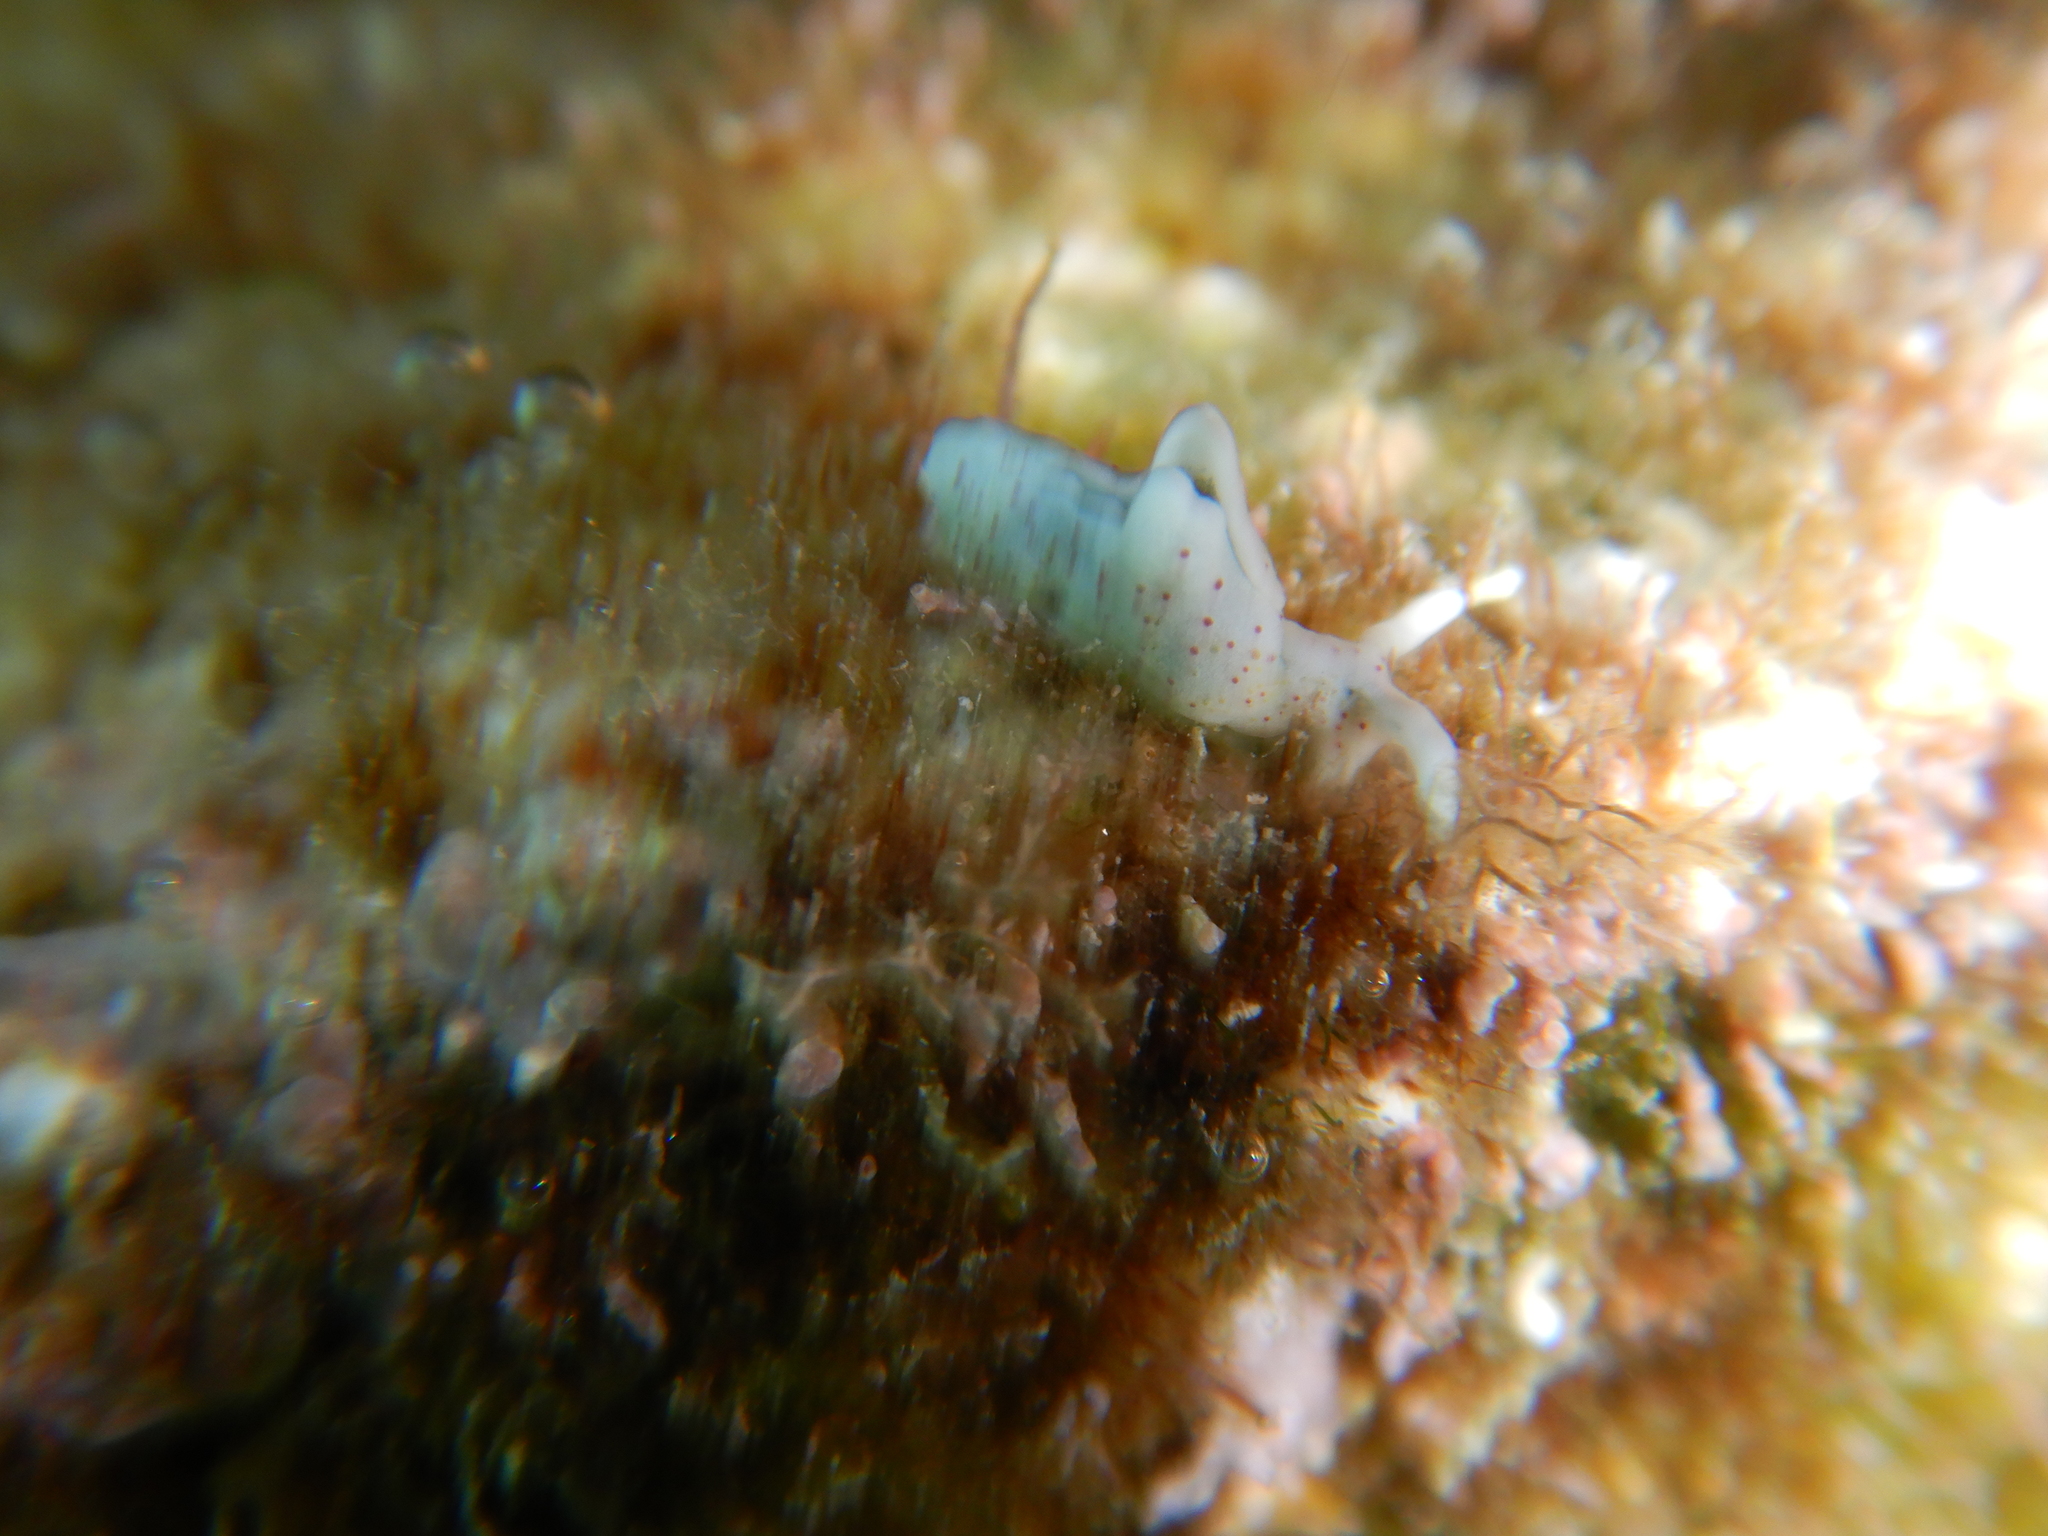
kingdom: Animalia
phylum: Mollusca
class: Gastropoda
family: Plakobranchidae
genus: Elysia
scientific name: Elysia timida
